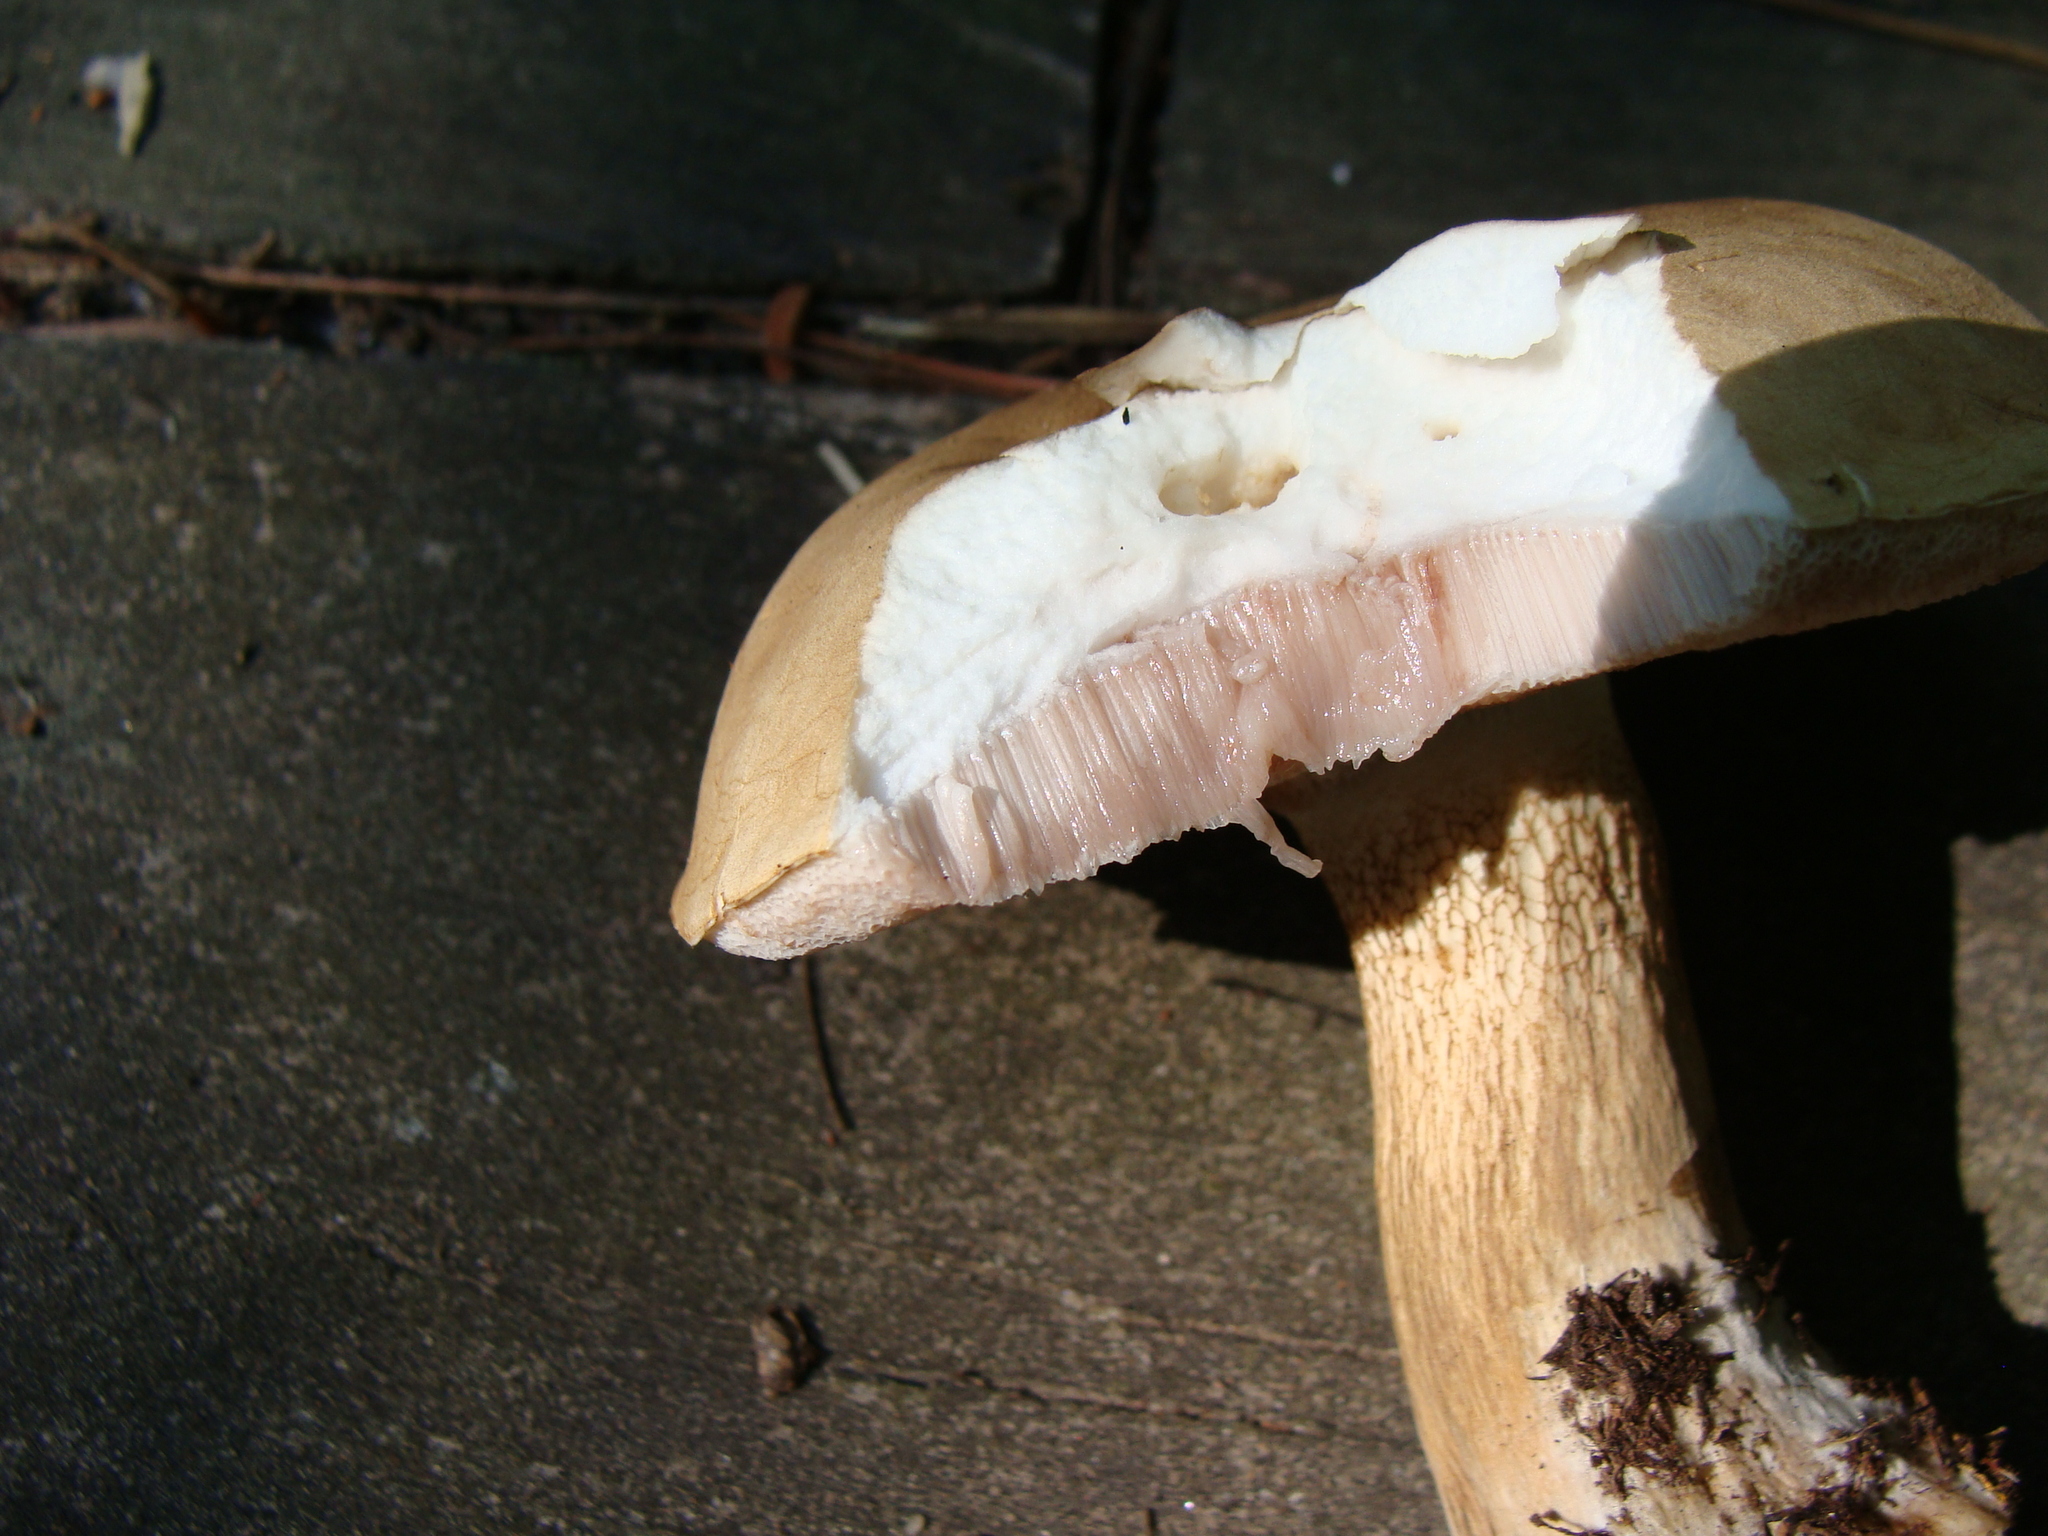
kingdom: Fungi
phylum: Basidiomycota
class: Agaricomycetes
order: Boletales
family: Boletaceae
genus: Tylopilus
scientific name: Tylopilus felleus
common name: Bitter bolete
